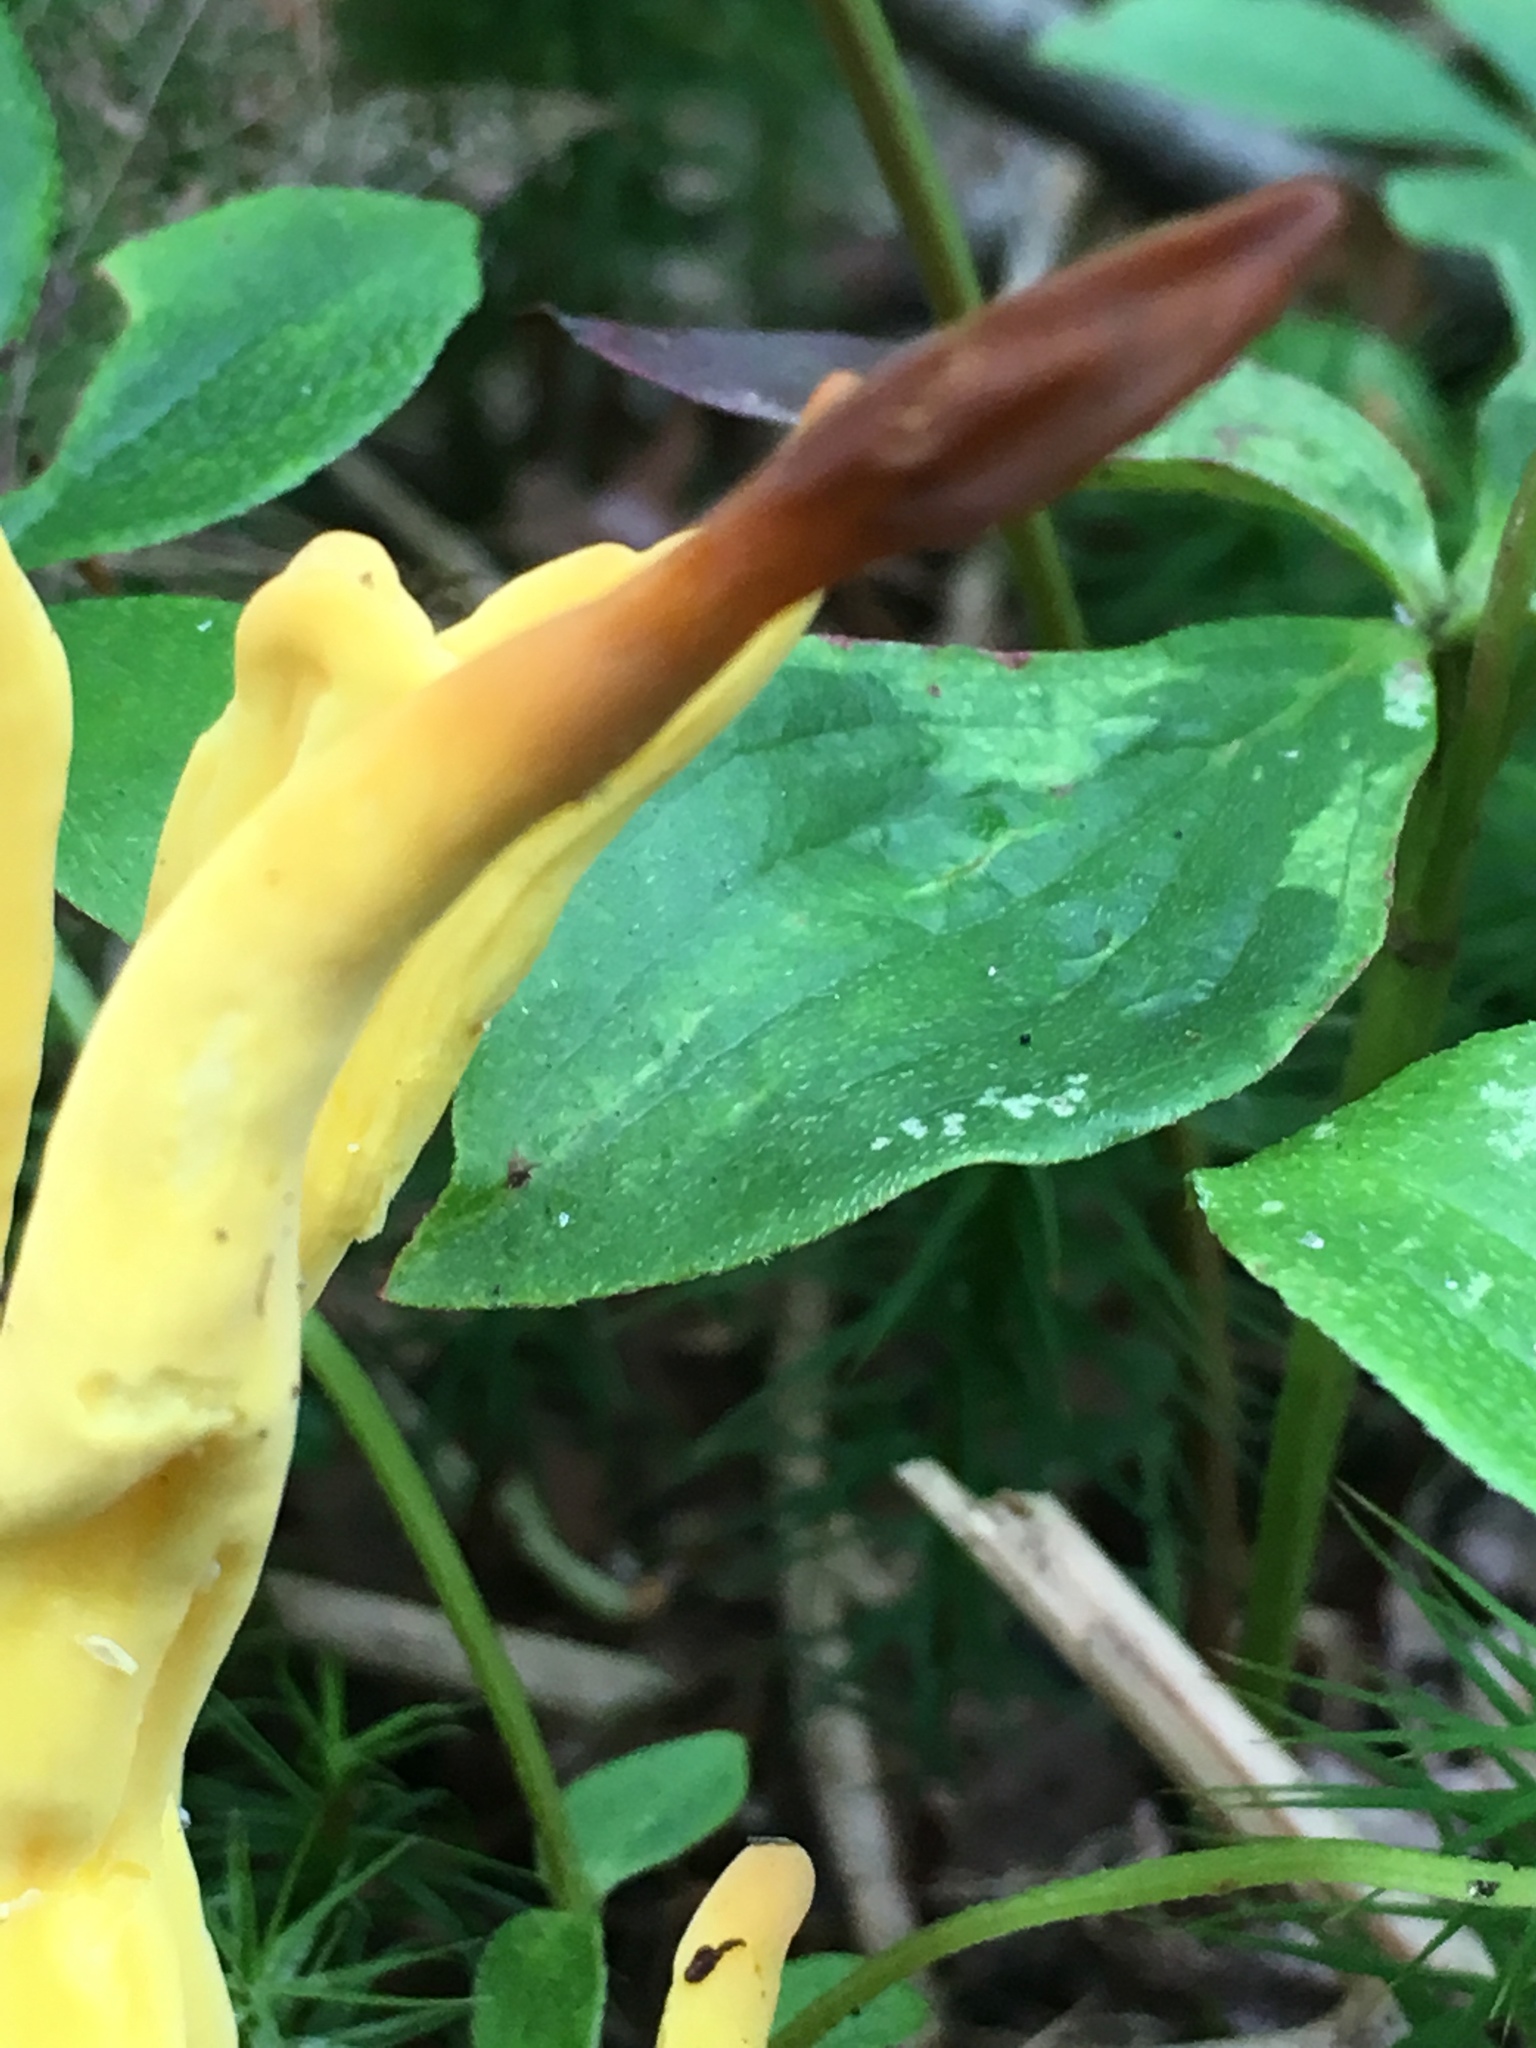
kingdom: Fungi
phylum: Basidiomycota
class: Agaricomycetes
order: Agaricales
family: Clavariaceae
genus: Clavulinopsis
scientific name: Clavulinopsis fusiformis
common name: Golden spindles
